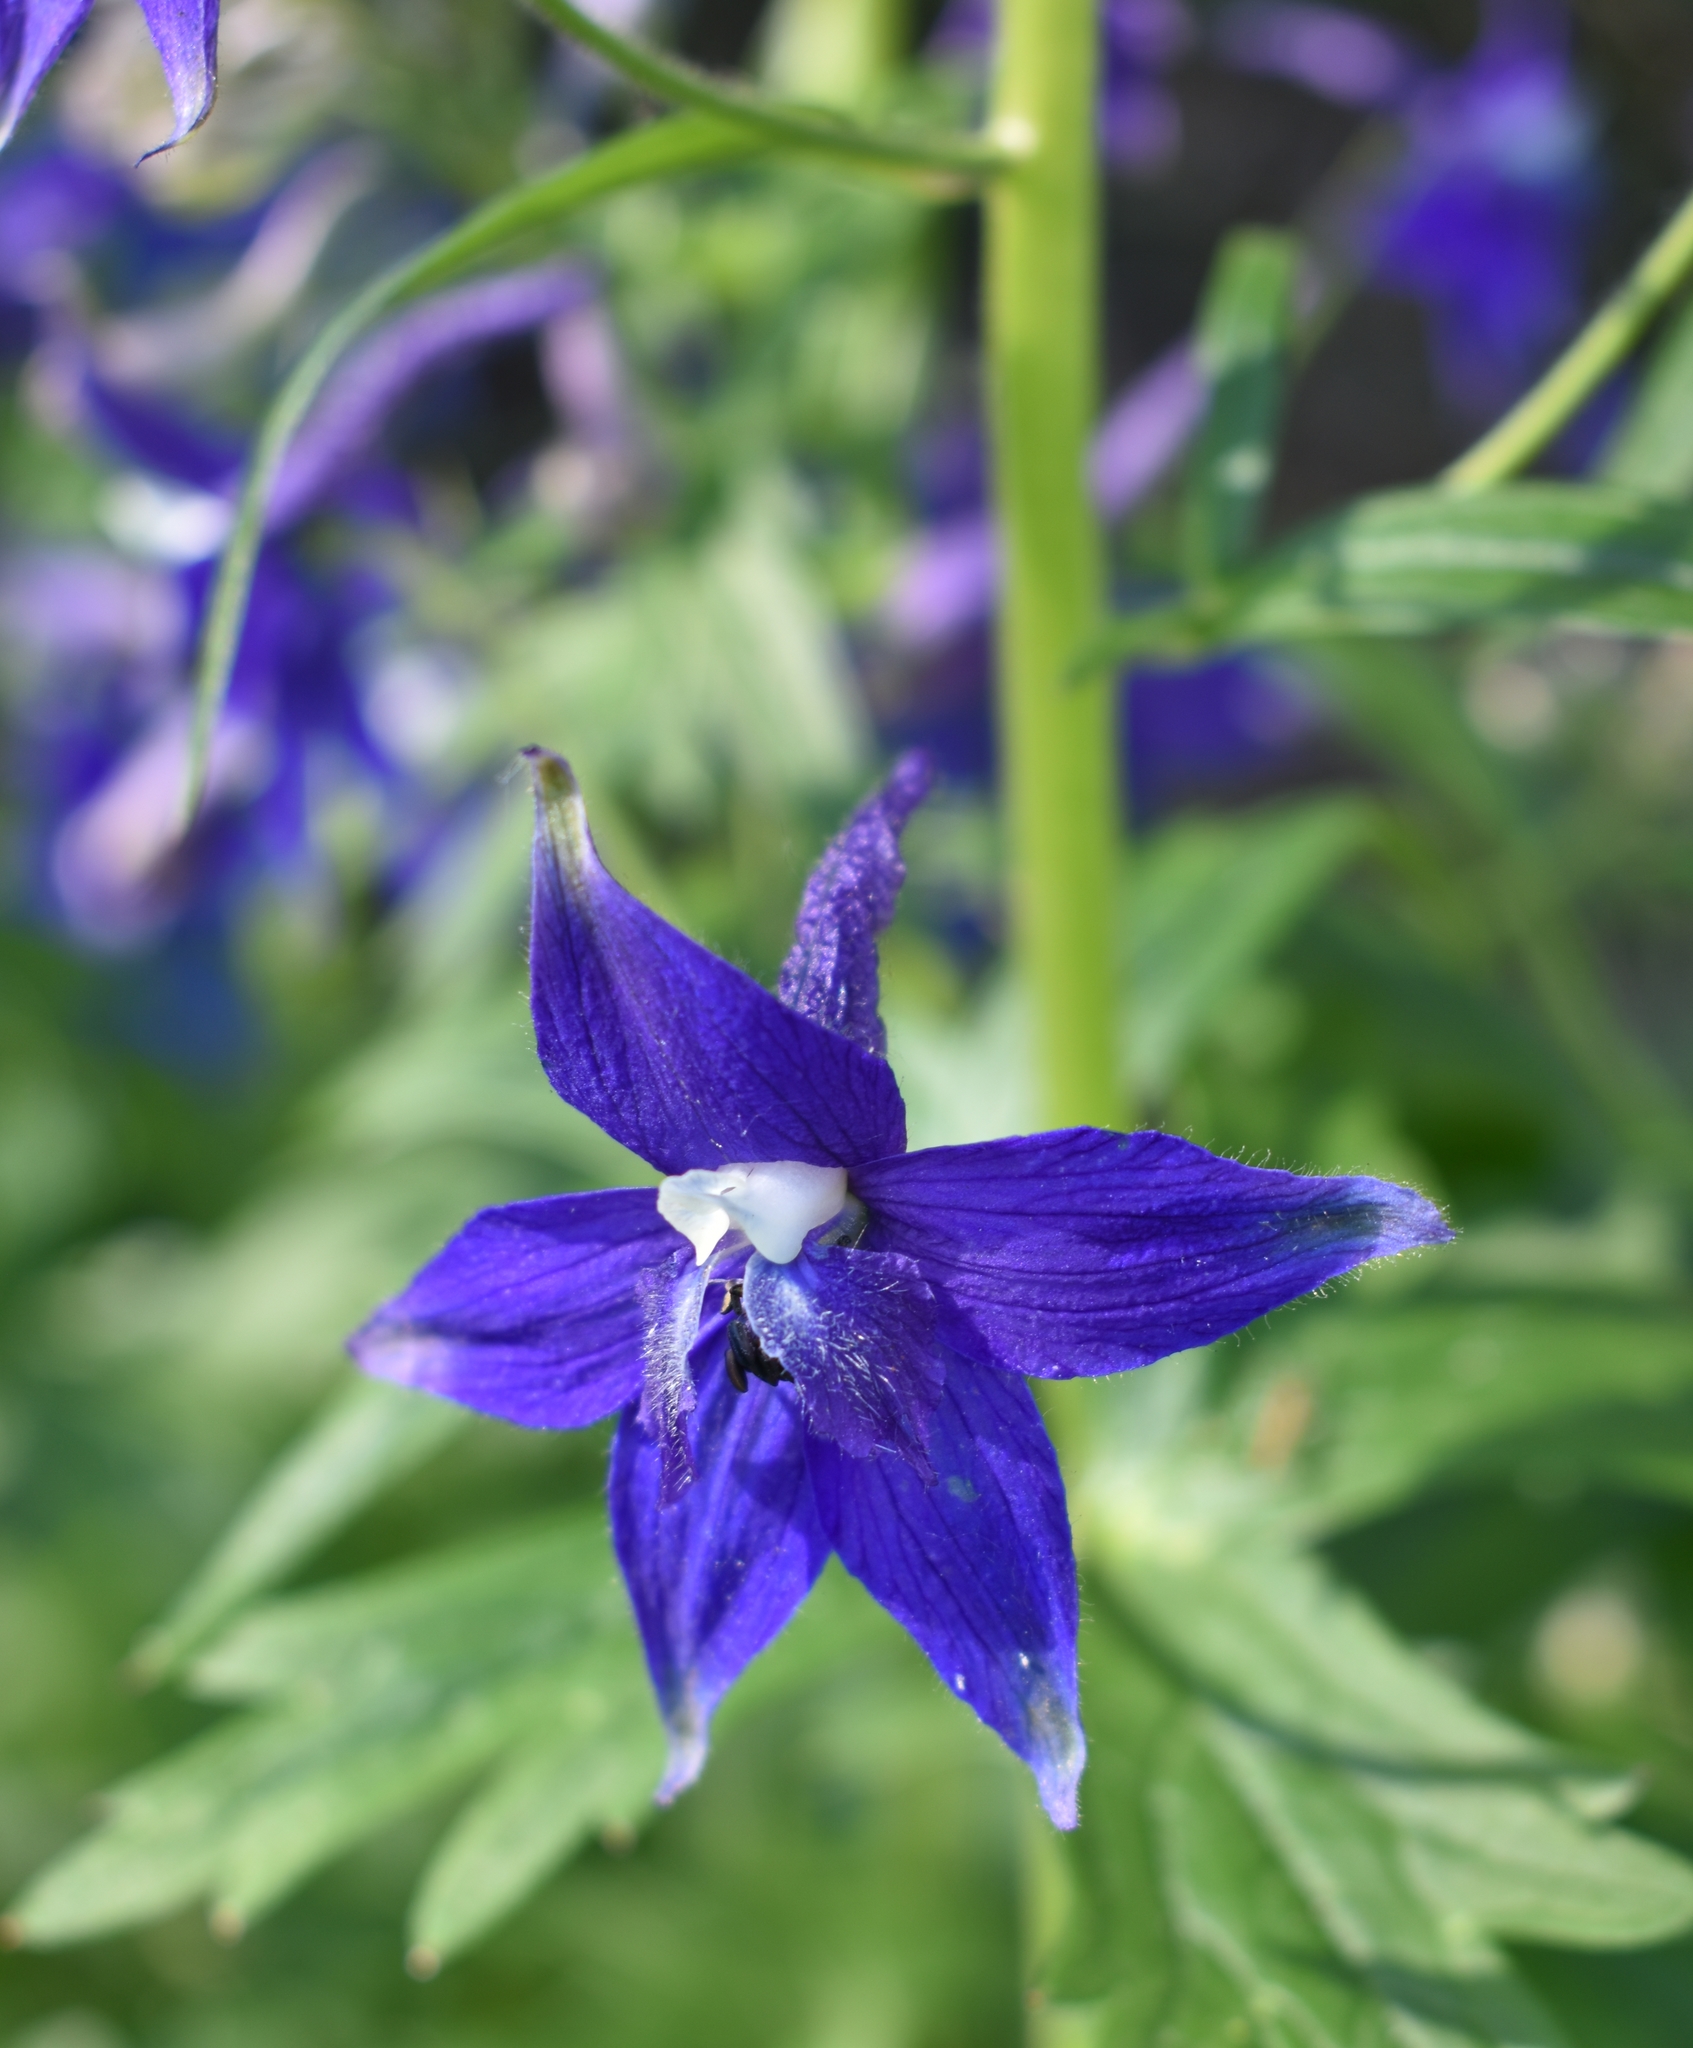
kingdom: Plantae
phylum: Tracheophyta
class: Magnoliopsida
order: Ranunculales
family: Ranunculaceae
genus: Delphinium
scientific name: Delphinium trolliifolium
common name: Cow-poison
